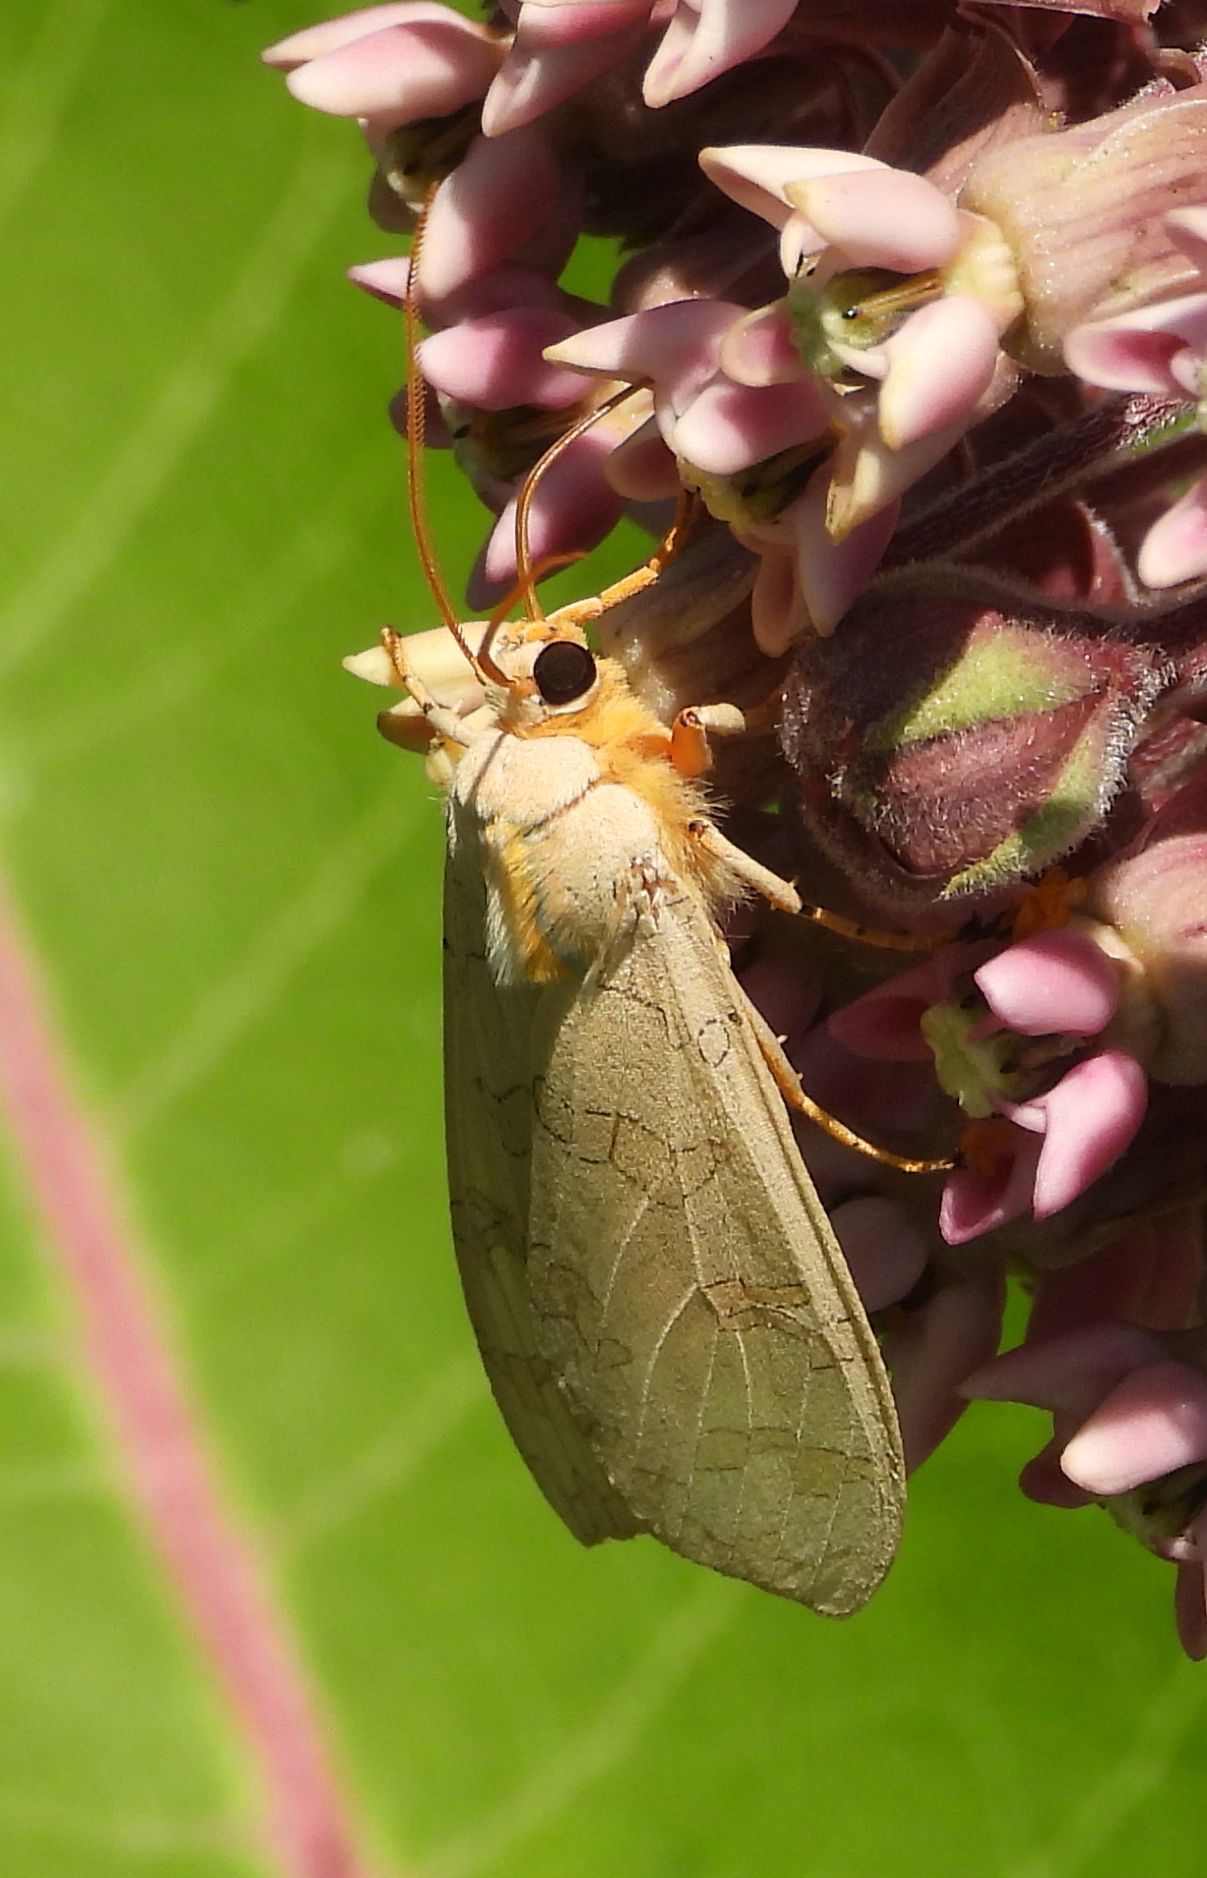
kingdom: Animalia
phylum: Arthropoda
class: Insecta
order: Lepidoptera
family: Erebidae
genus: Halysidota
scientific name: Halysidota tessellaris
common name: Banded tussock moth
